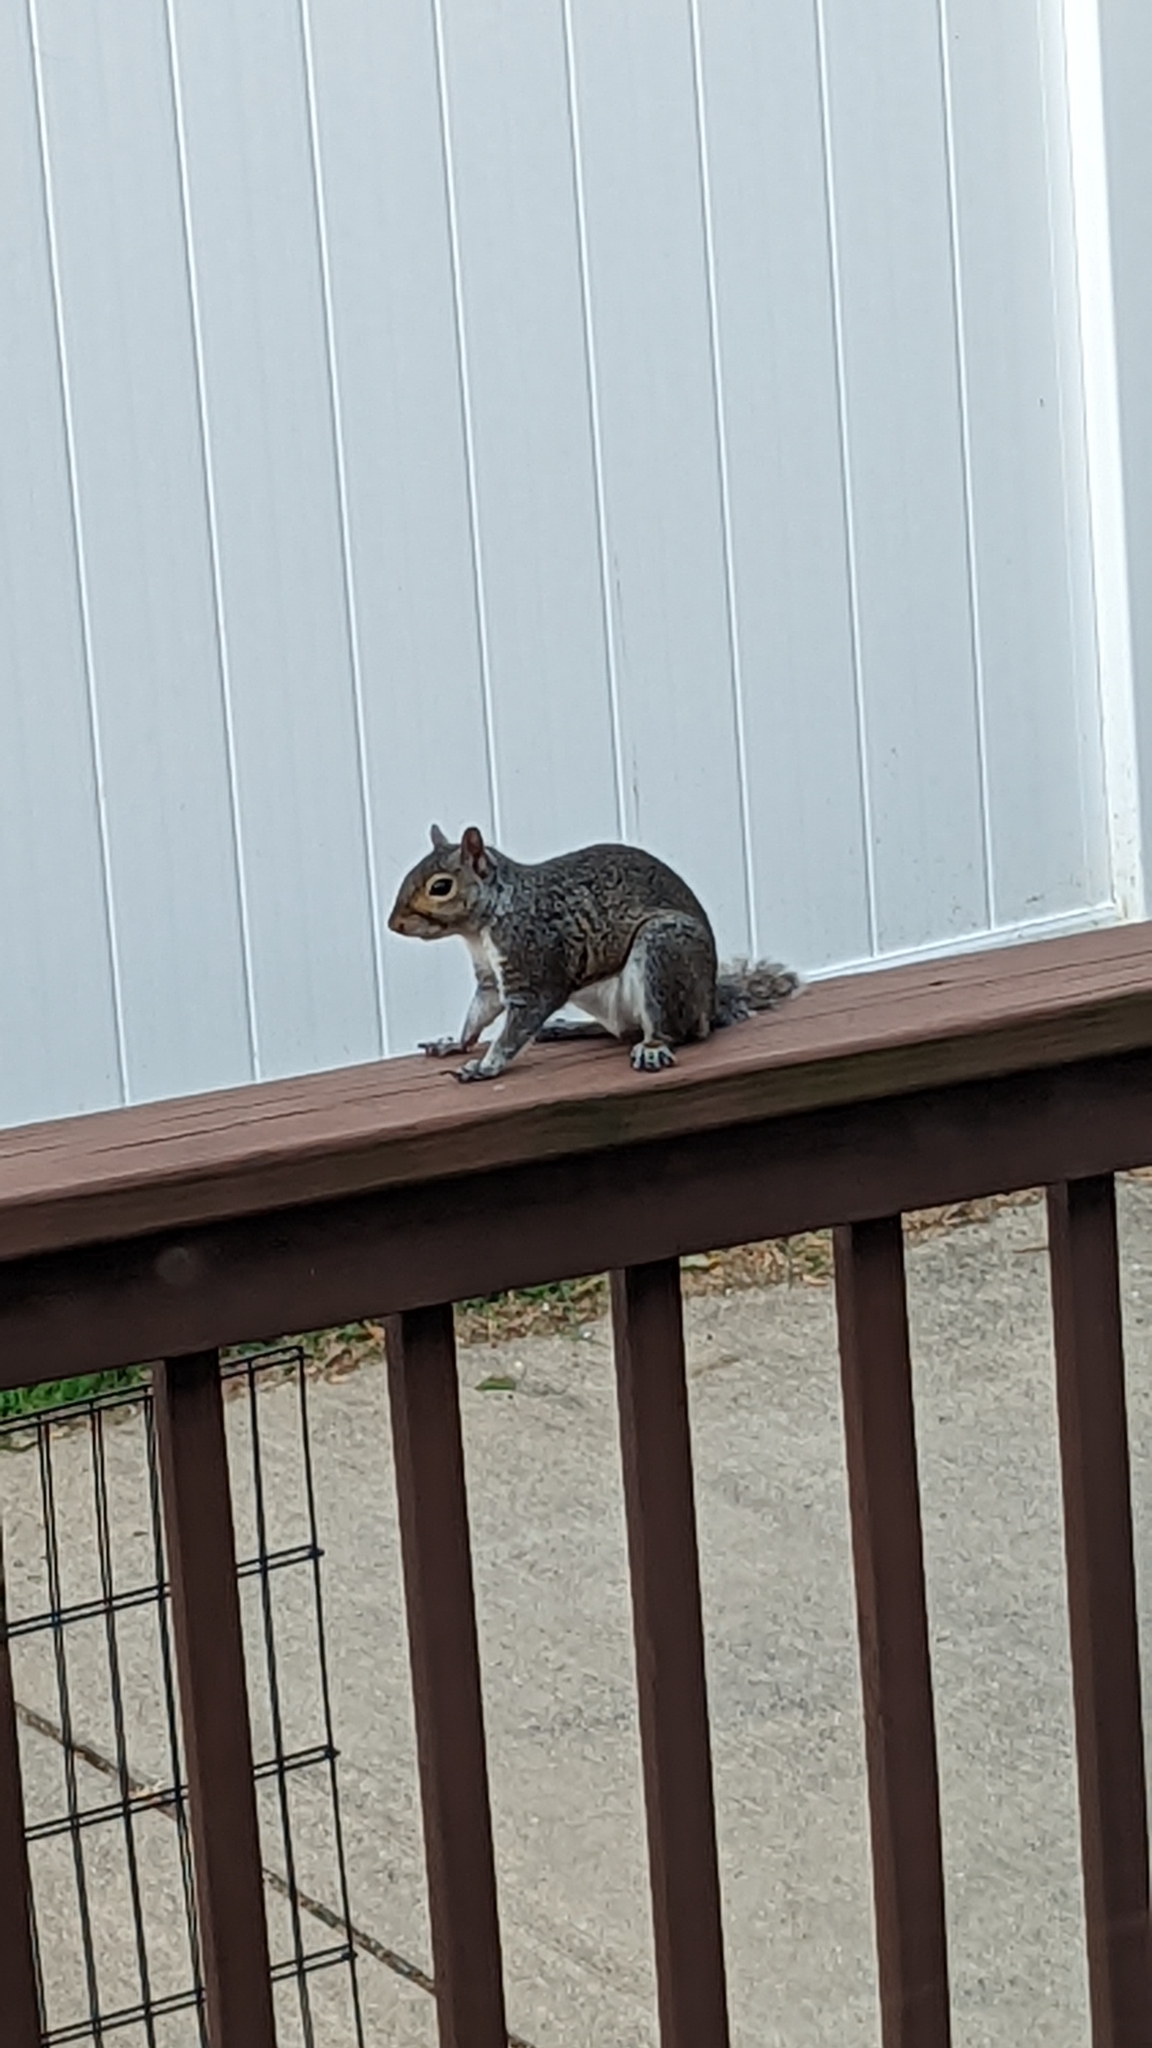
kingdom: Animalia
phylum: Chordata
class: Mammalia
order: Rodentia
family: Sciuridae
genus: Sciurus
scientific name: Sciurus carolinensis
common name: Eastern gray squirrel
